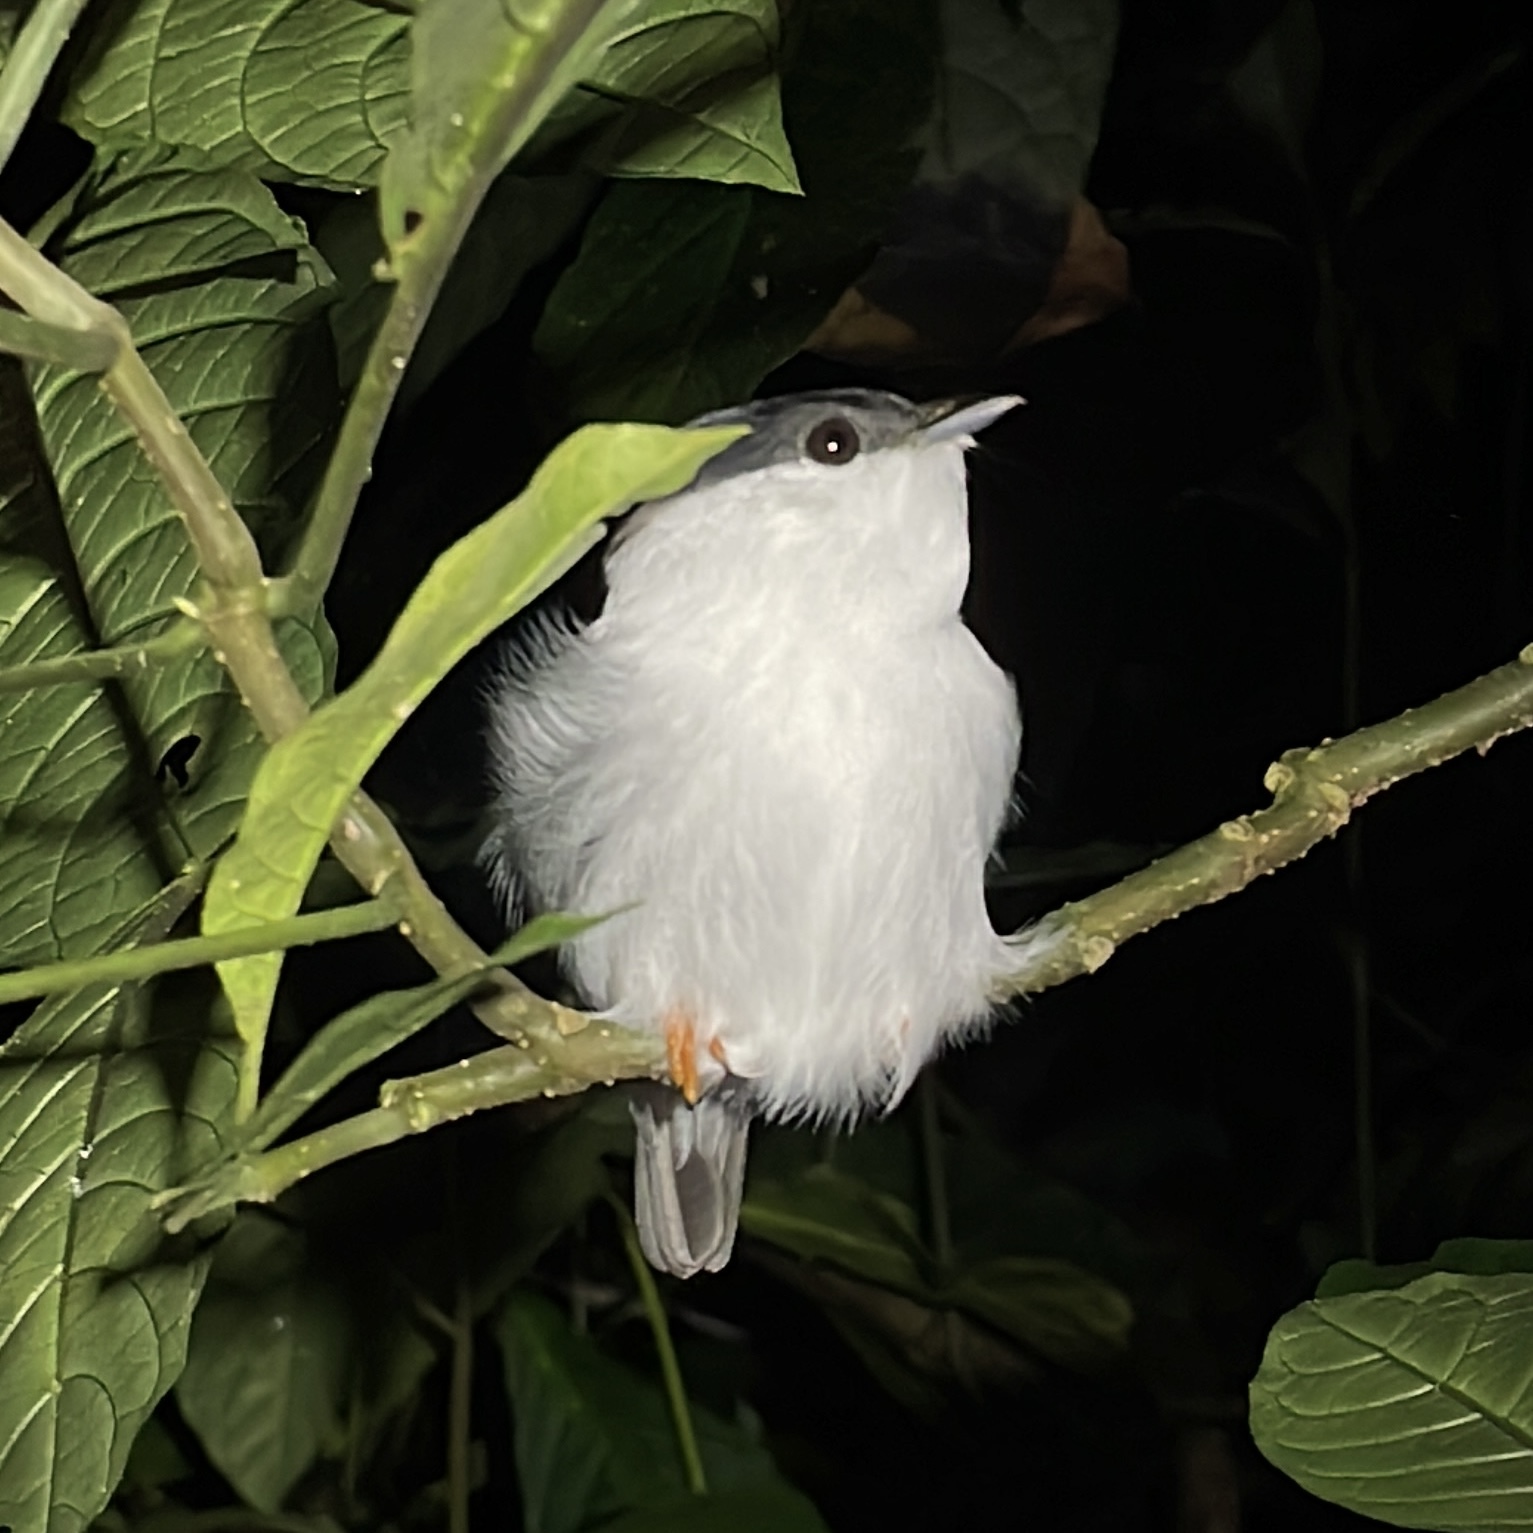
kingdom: Animalia
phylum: Chordata
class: Aves
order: Passeriformes
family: Pipridae
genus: Manacus
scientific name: Manacus manacus
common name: White-bearded manakin
